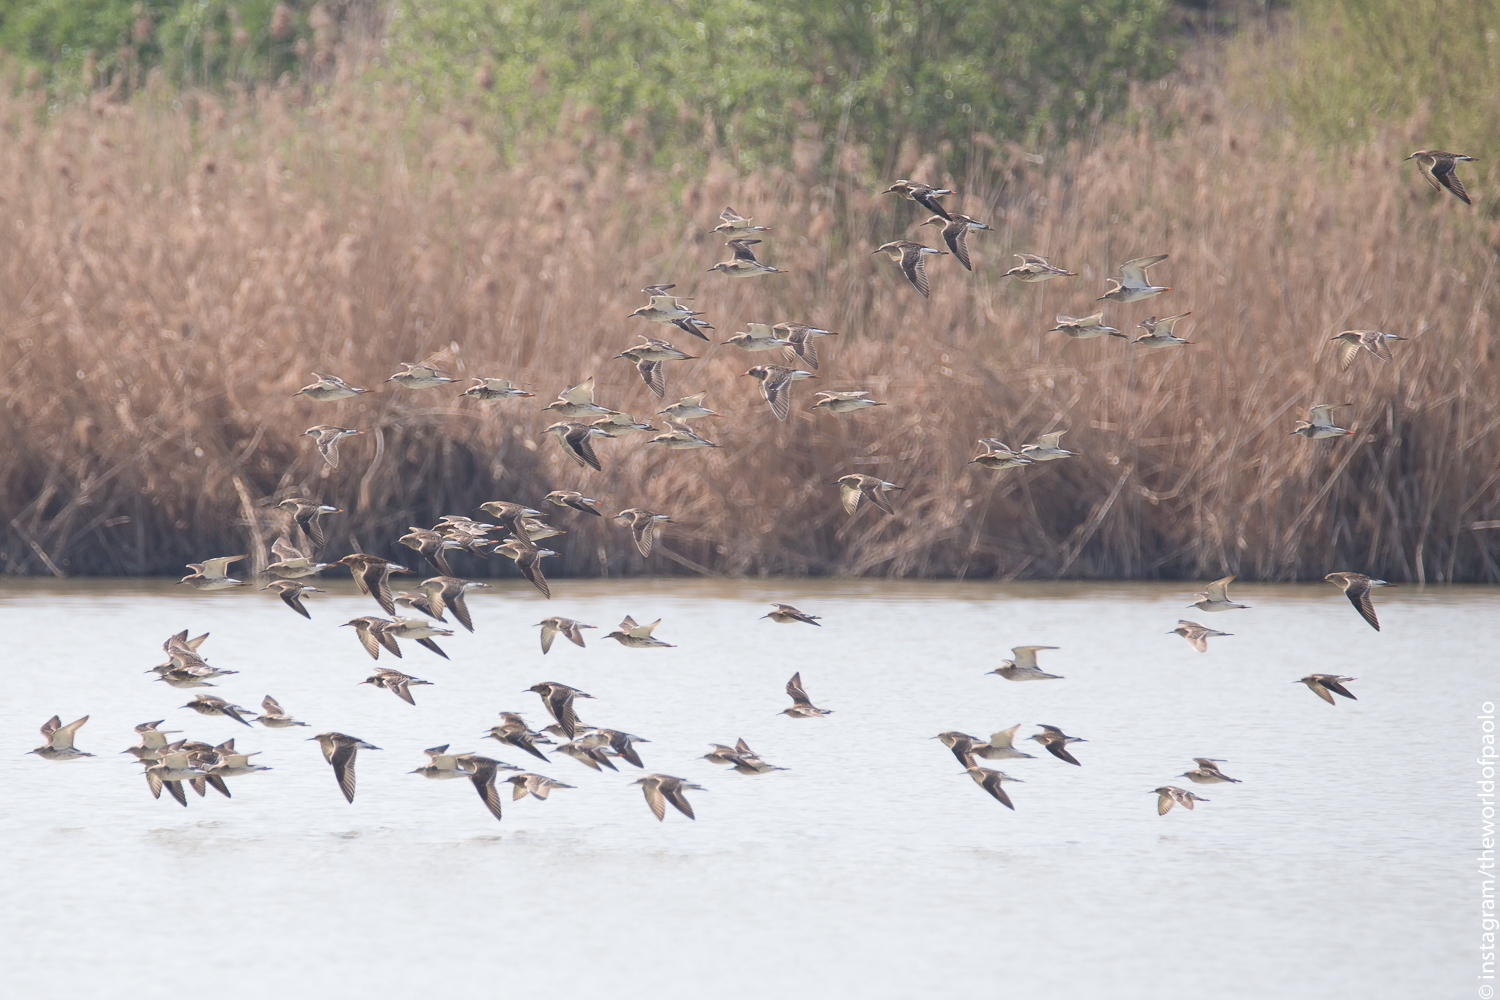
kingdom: Animalia
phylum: Chordata
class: Aves
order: Charadriiformes
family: Scolopacidae
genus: Calidris
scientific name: Calidris pugnax
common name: Ruff
